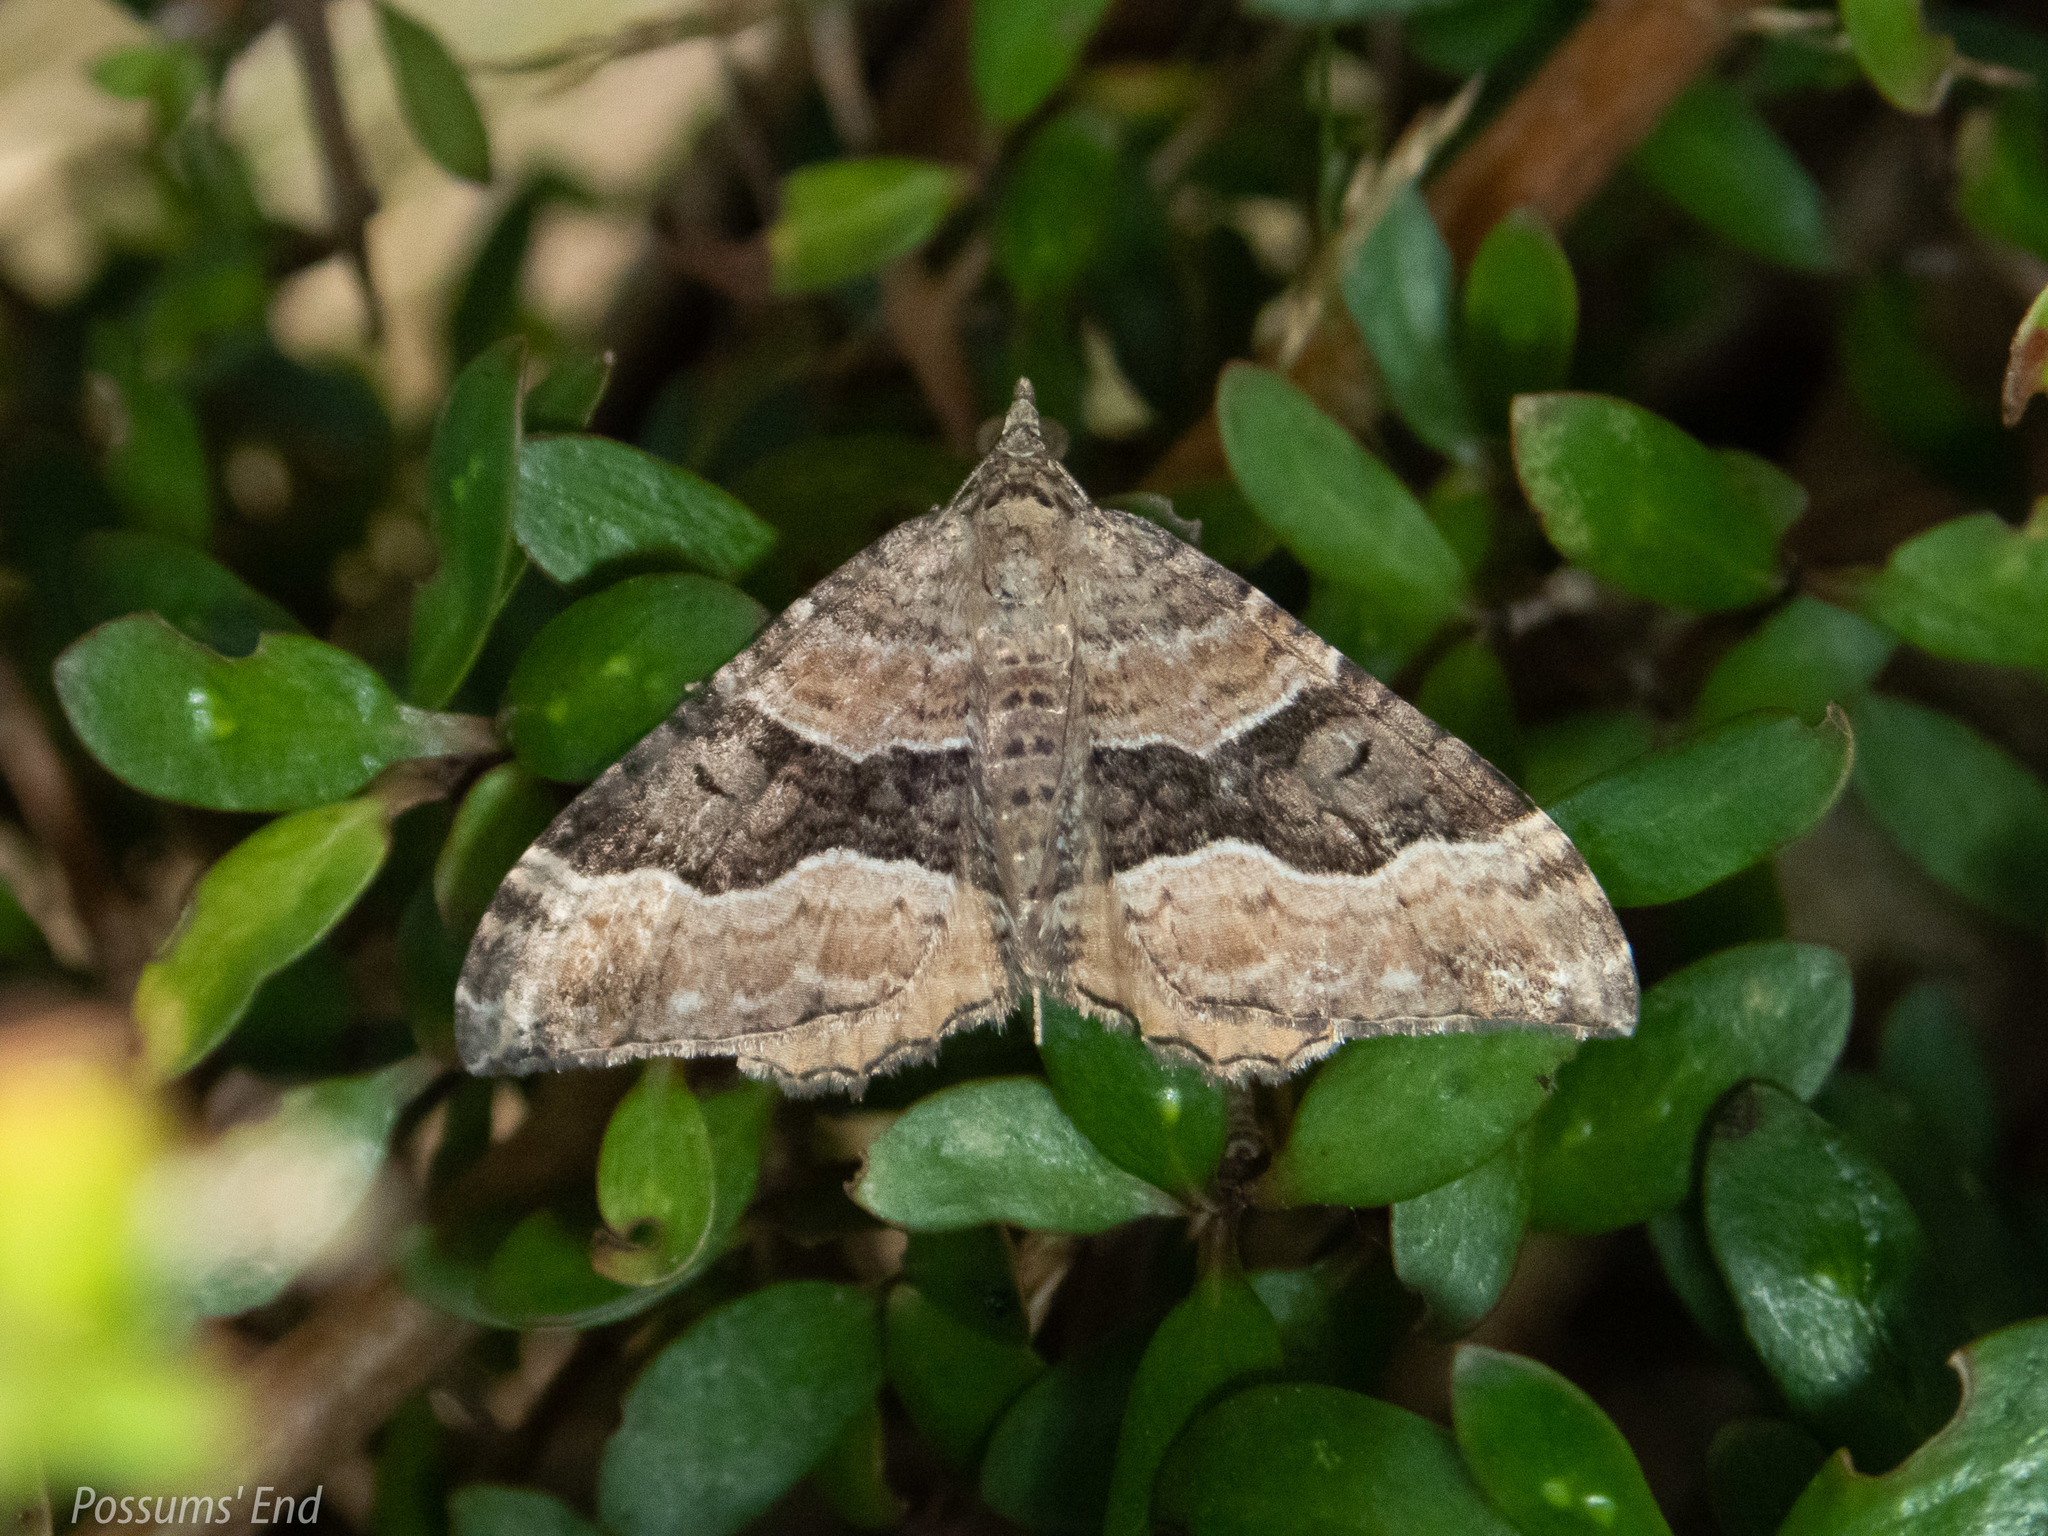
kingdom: Animalia
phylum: Arthropoda
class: Insecta
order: Lepidoptera
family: Geometridae
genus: Hydriomena
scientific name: Hydriomena deltoidata
